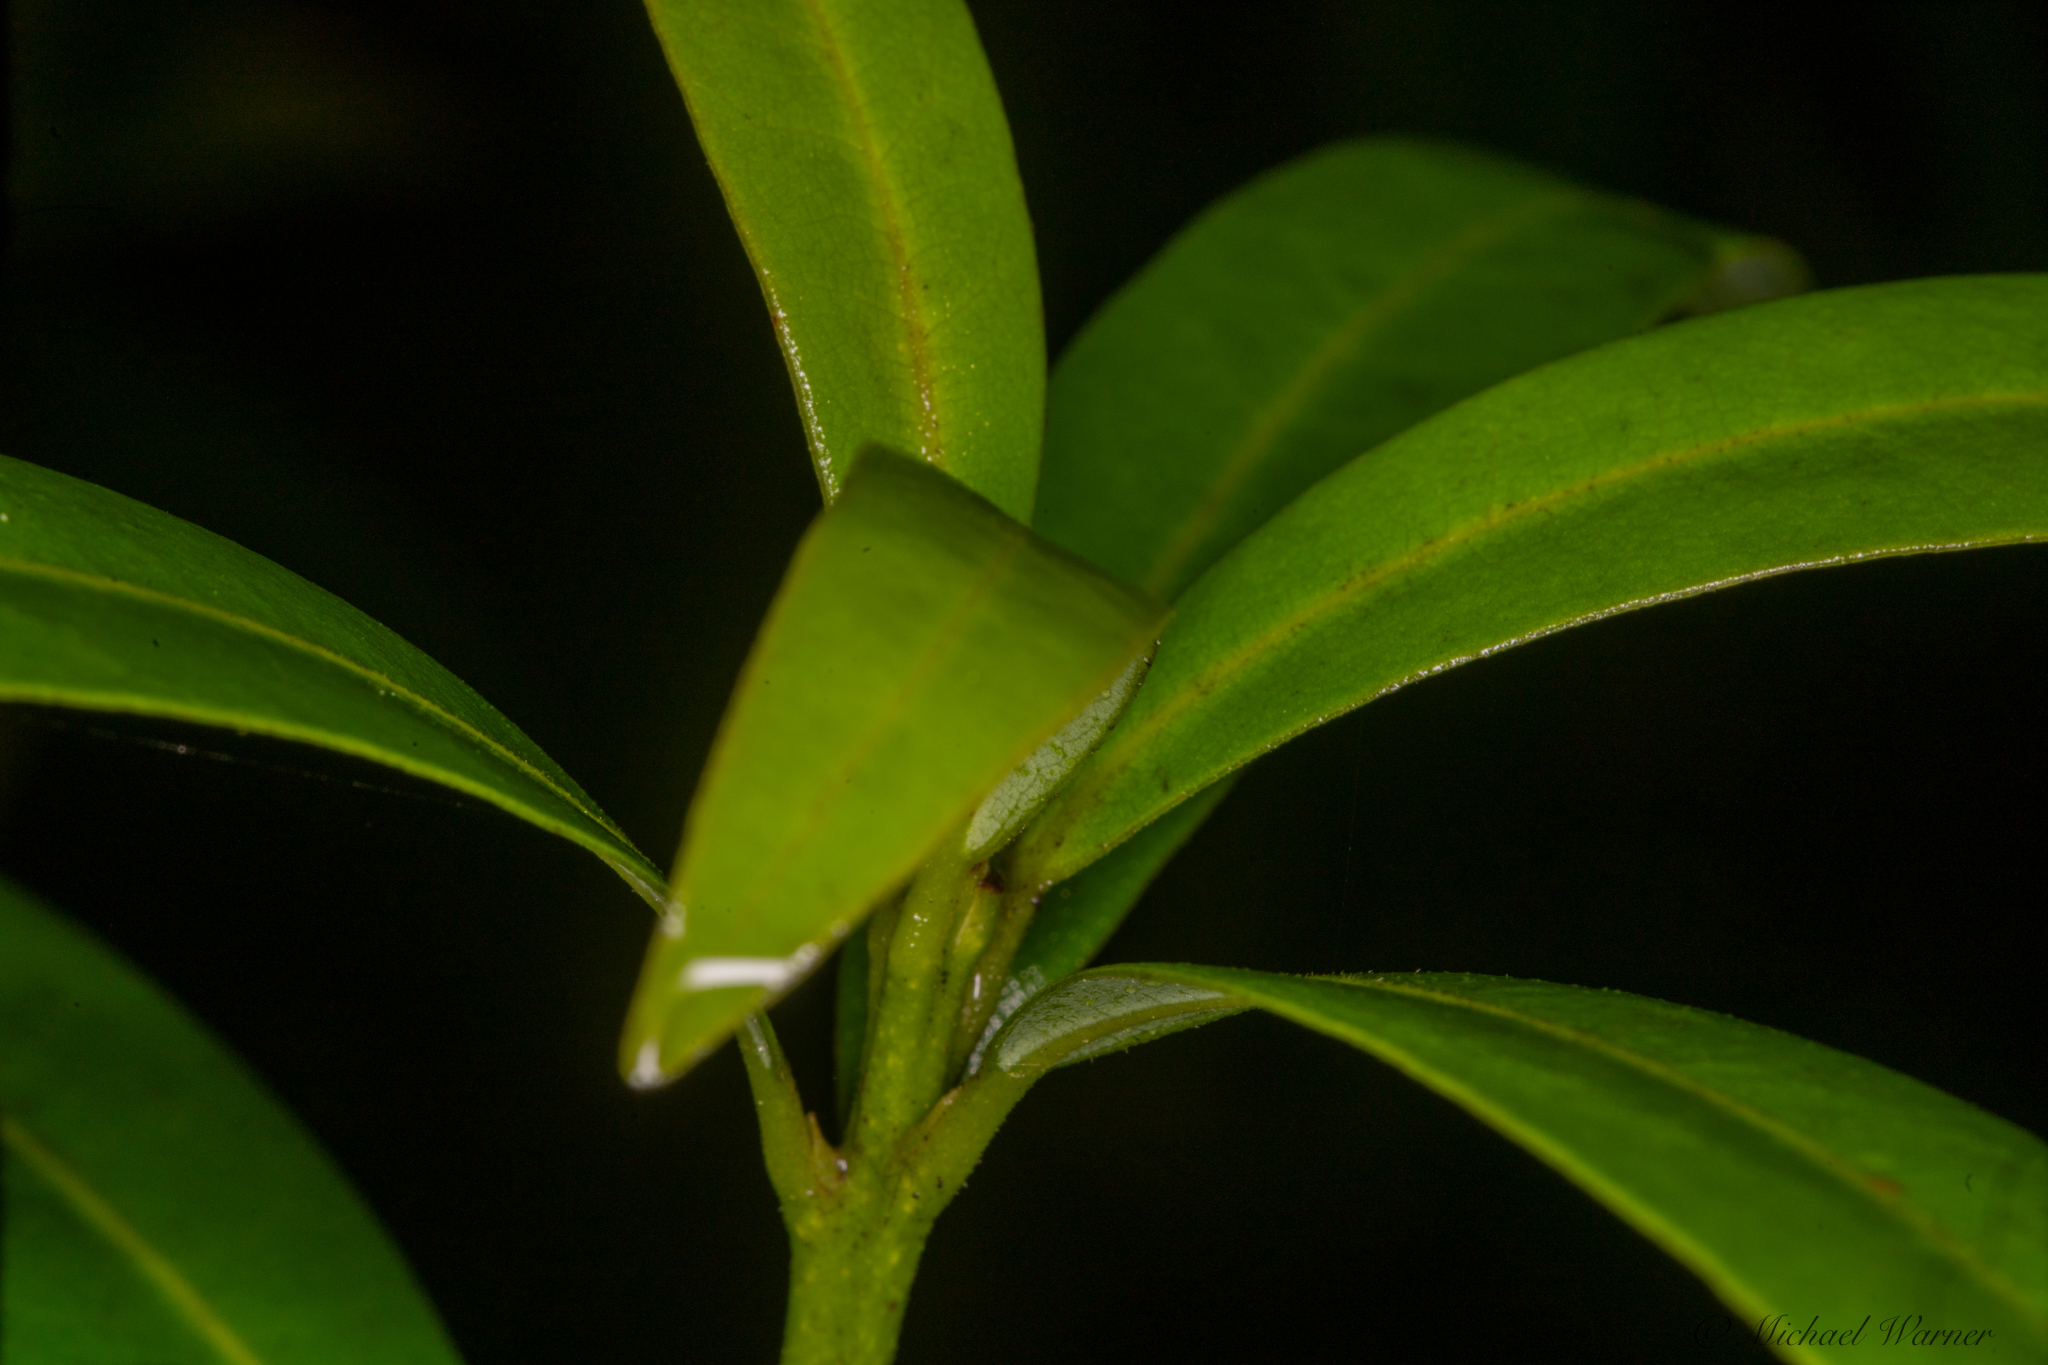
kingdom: Plantae
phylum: Tracheophyta
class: Magnoliopsida
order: Laurales
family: Lauraceae
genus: Umbellularia
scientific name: Umbellularia californica
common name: California bay
